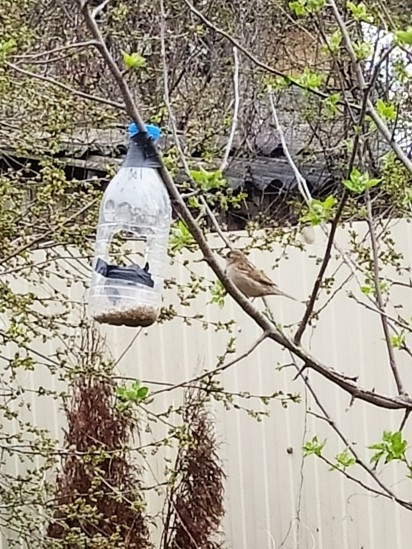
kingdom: Animalia
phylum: Chordata
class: Aves
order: Passeriformes
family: Passeridae
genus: Passer
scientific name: Passer domesticus
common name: House sparrow
